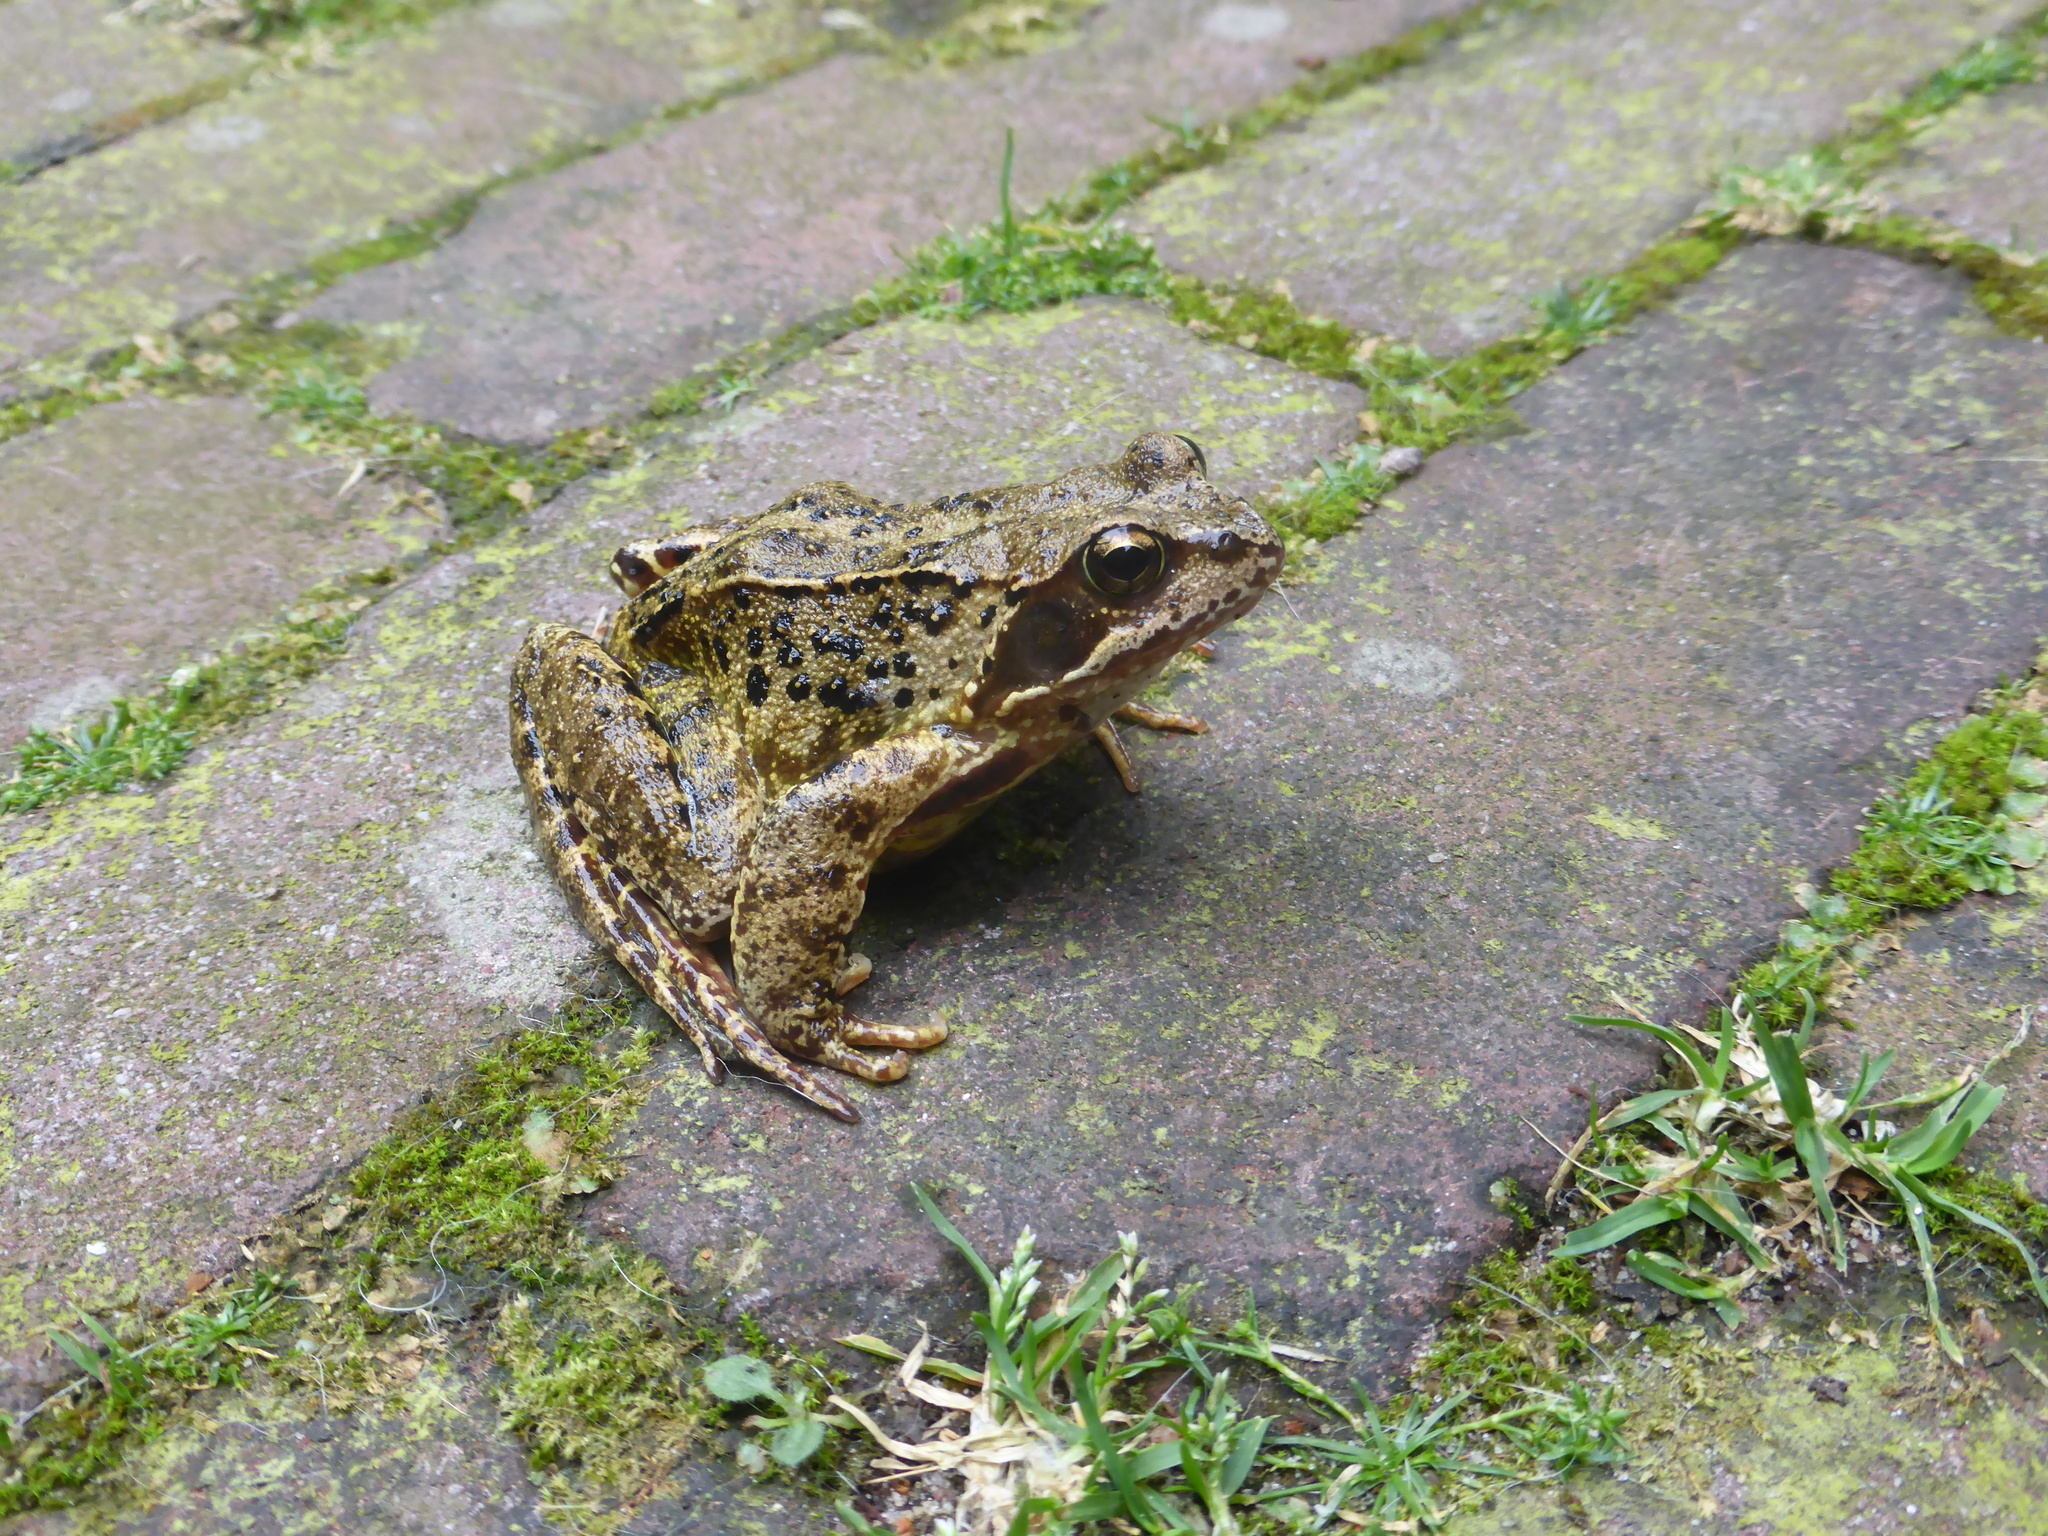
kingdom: Animalia
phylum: Chordata
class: Amphibia
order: Anura
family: Ranidae
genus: Rana
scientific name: Rana temporaria
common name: Common frog
